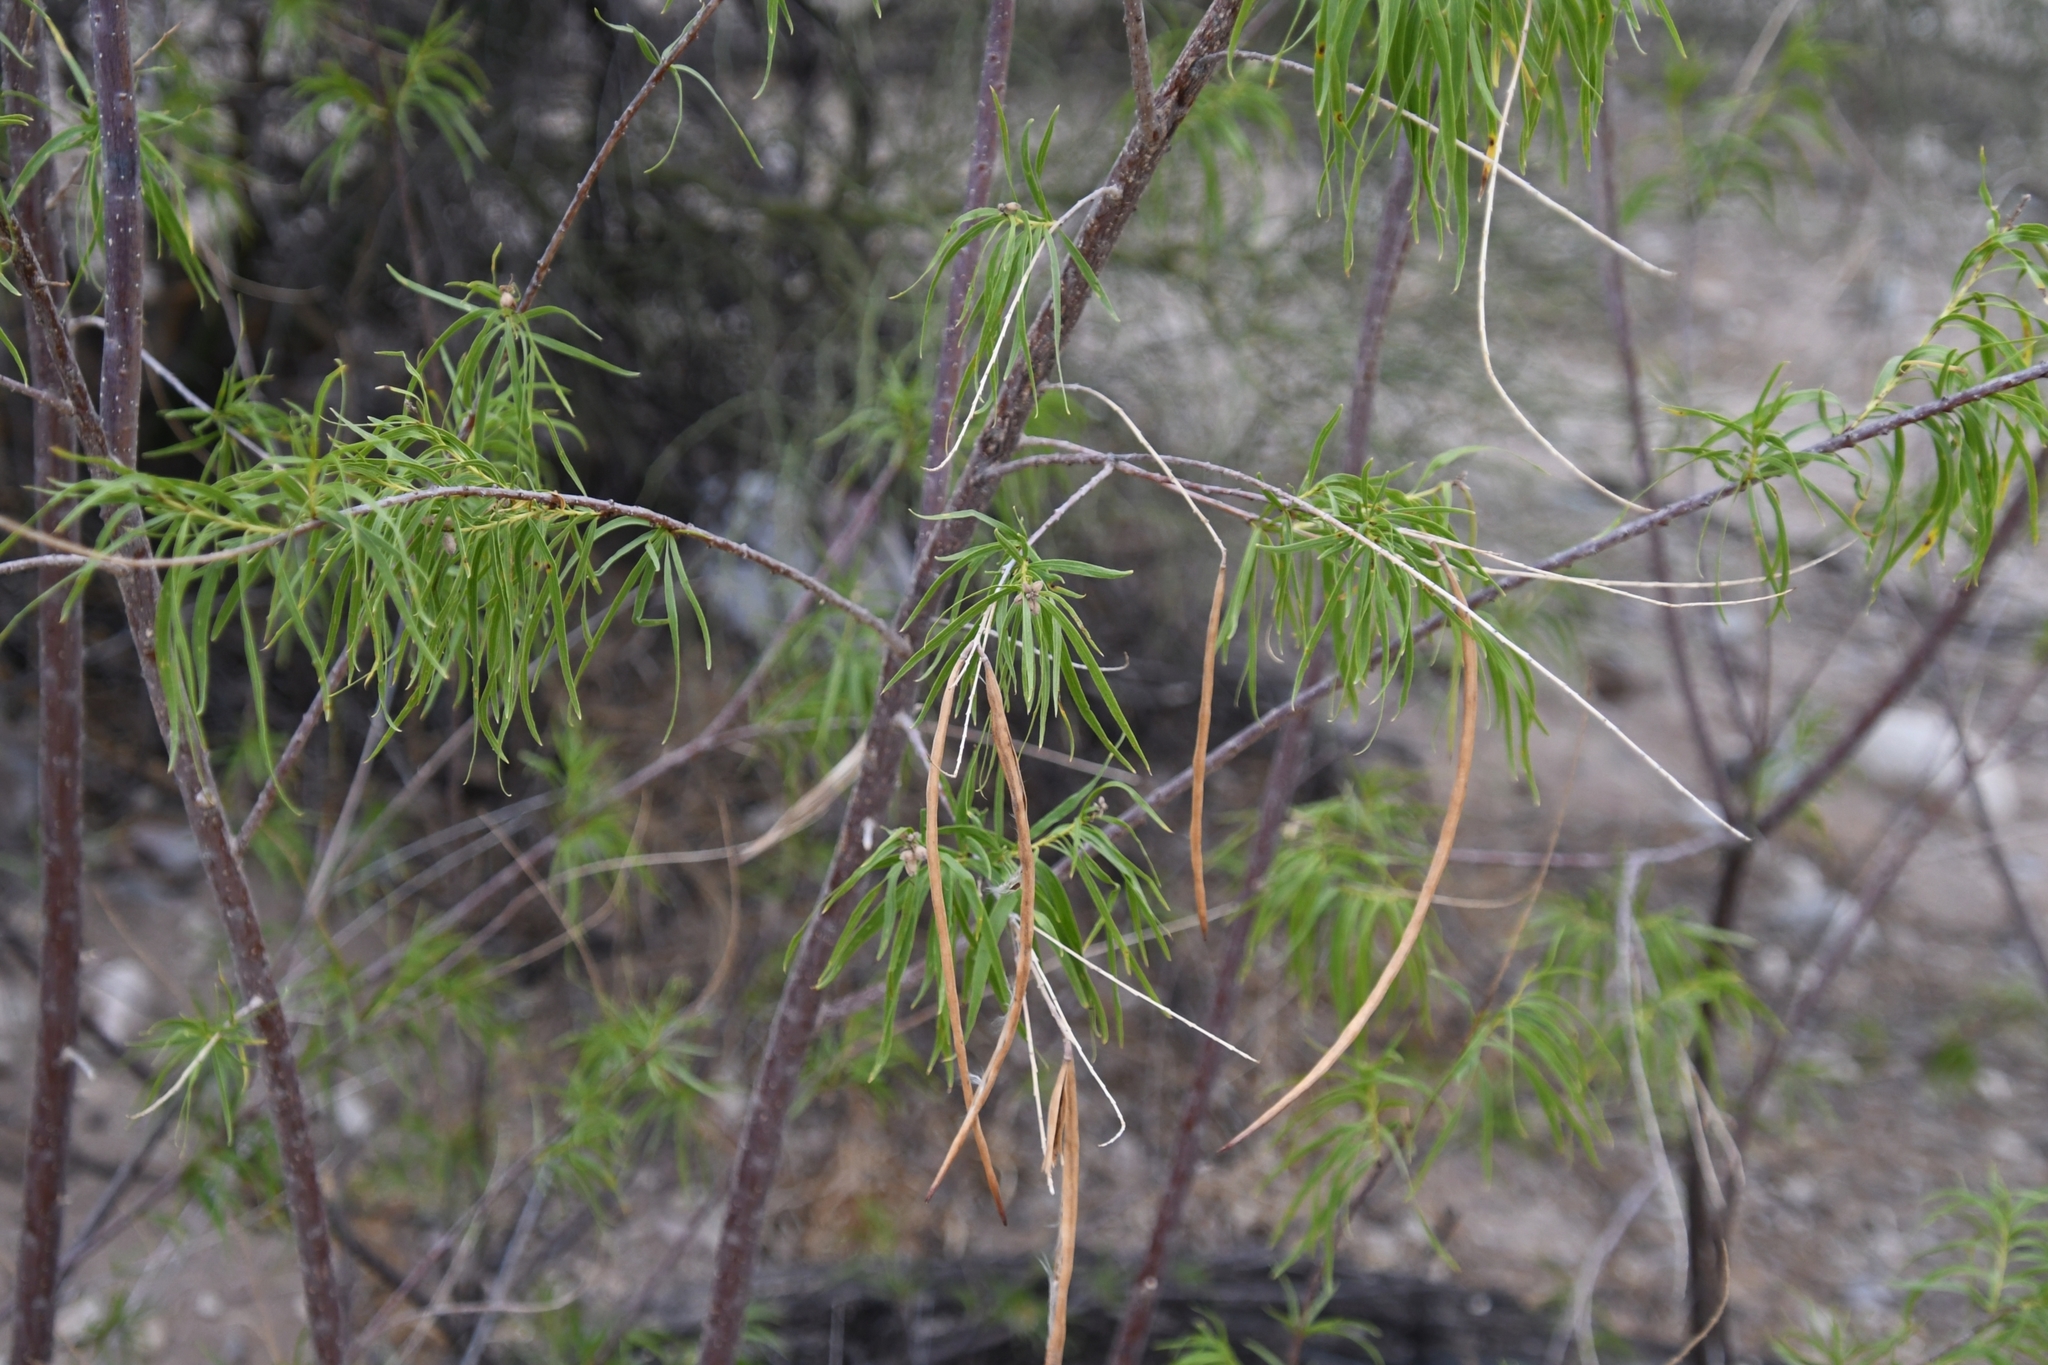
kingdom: Plantae
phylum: Tracheophyta
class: Magnoliopsida
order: Lamiales
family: Bignoniaceae
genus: Chilopsis
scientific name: Chilopsis linearis
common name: Desert-willow
